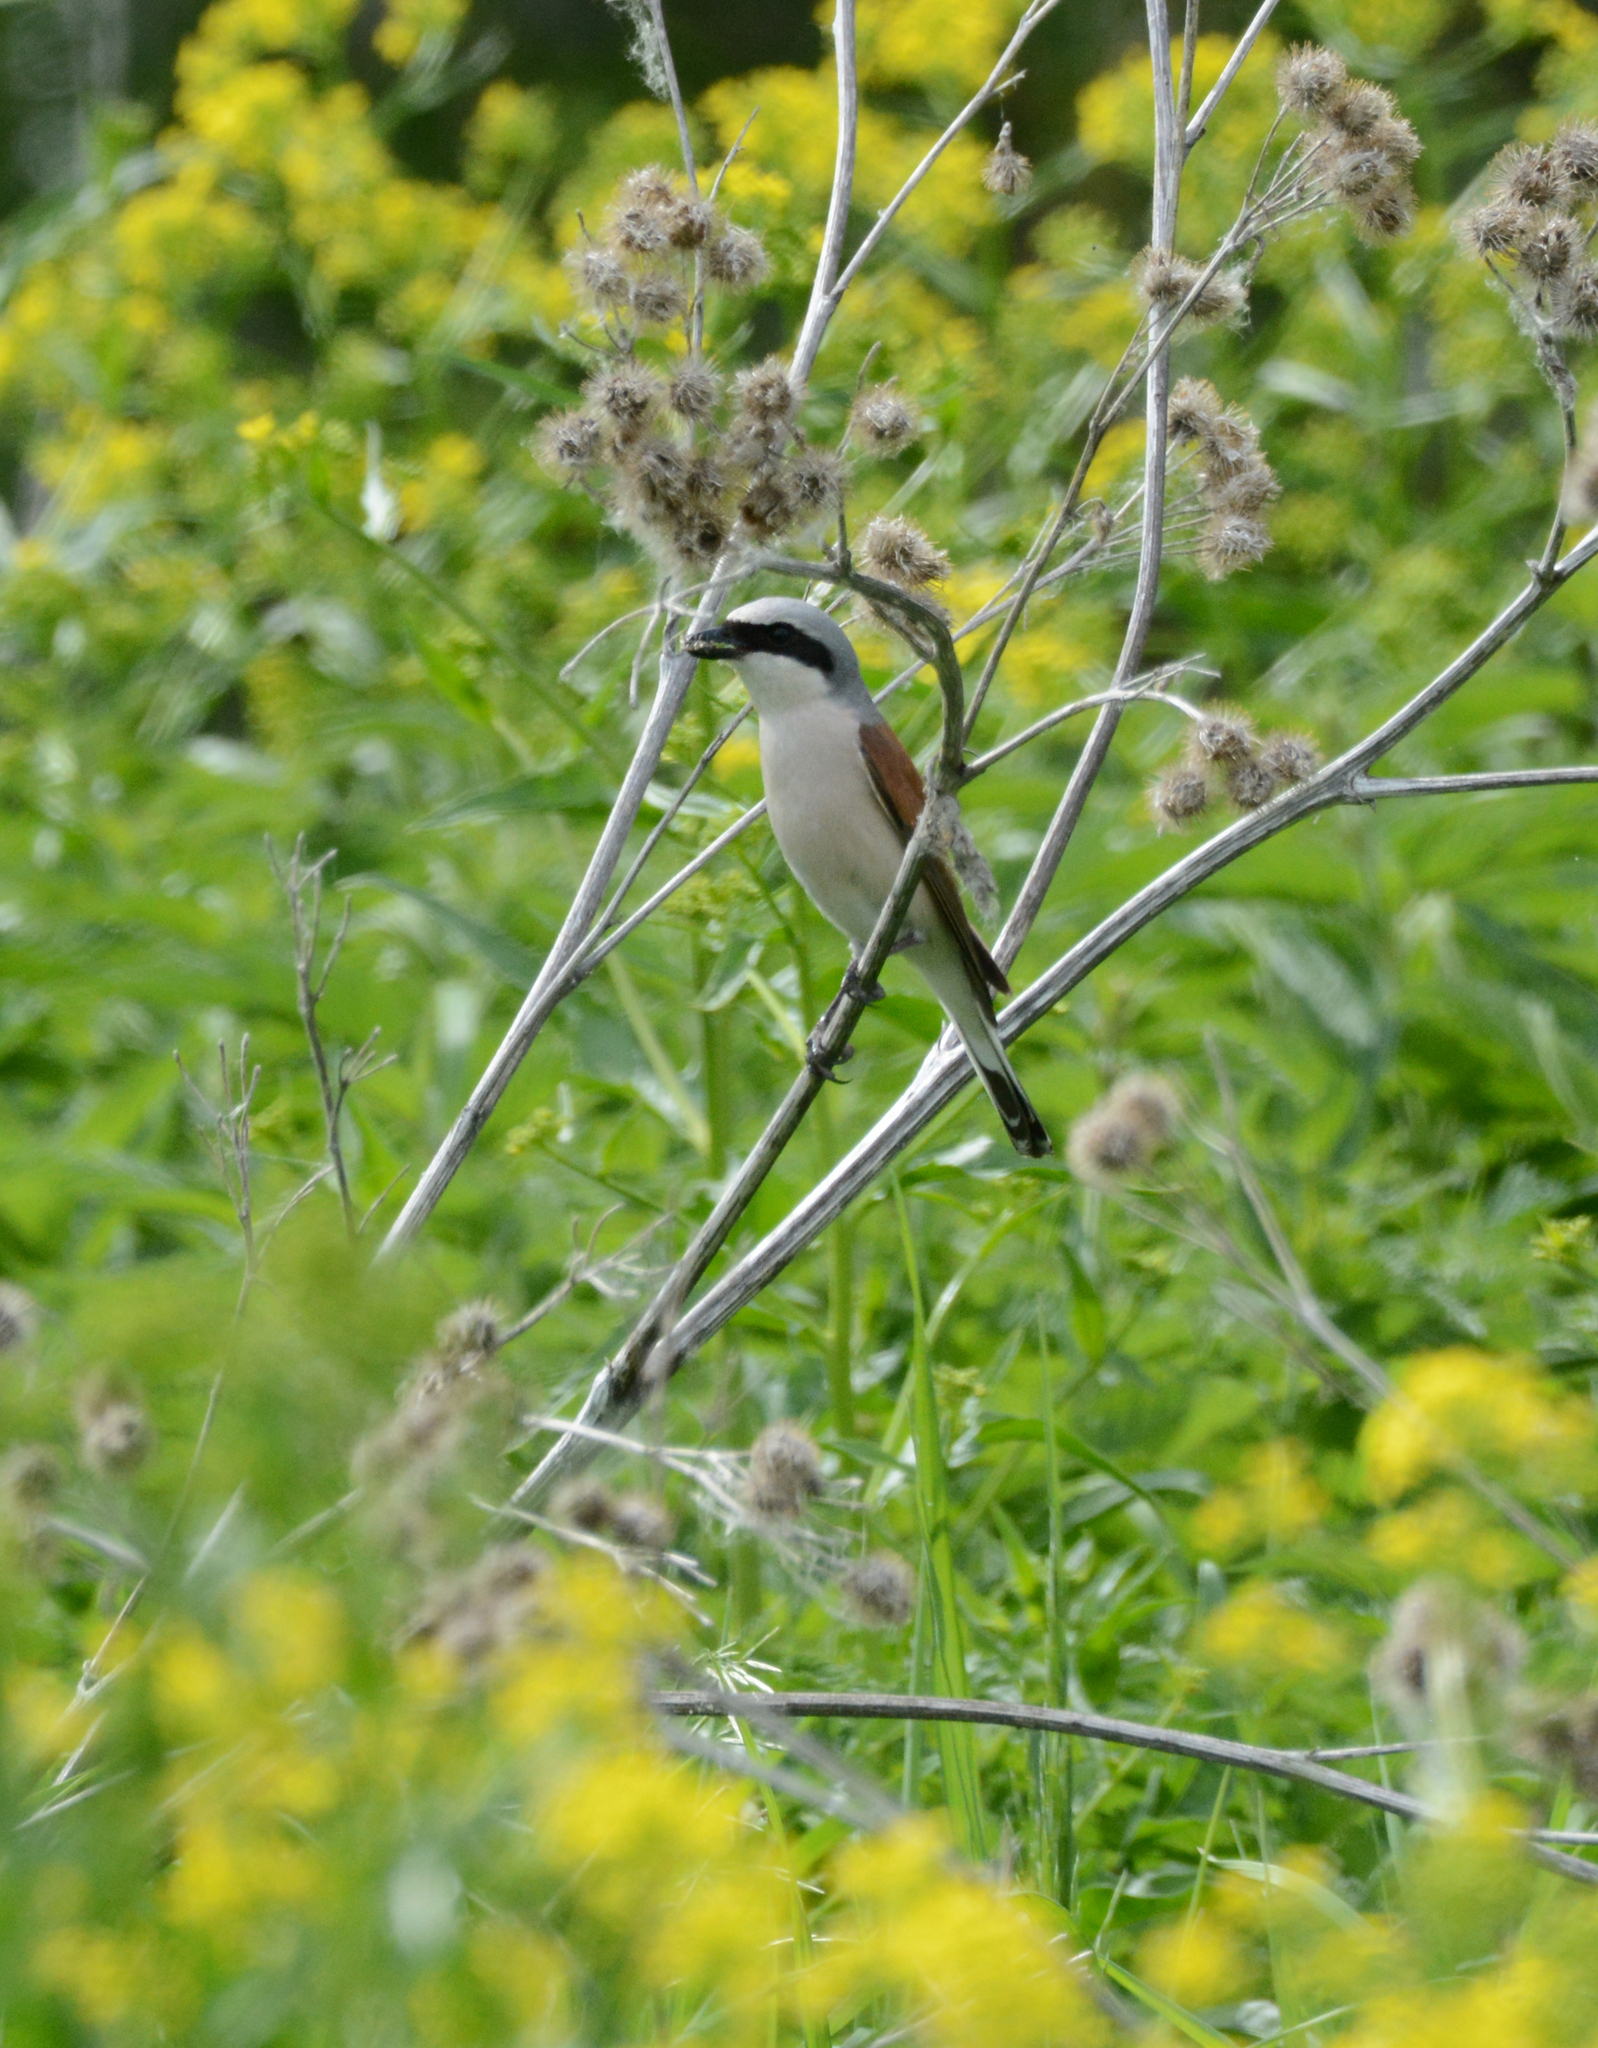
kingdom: Animalia
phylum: Chordata
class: Aves
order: Passeriformes
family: Laniidae
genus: Lanius
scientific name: Lanius collurio
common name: Red-backed shrike
